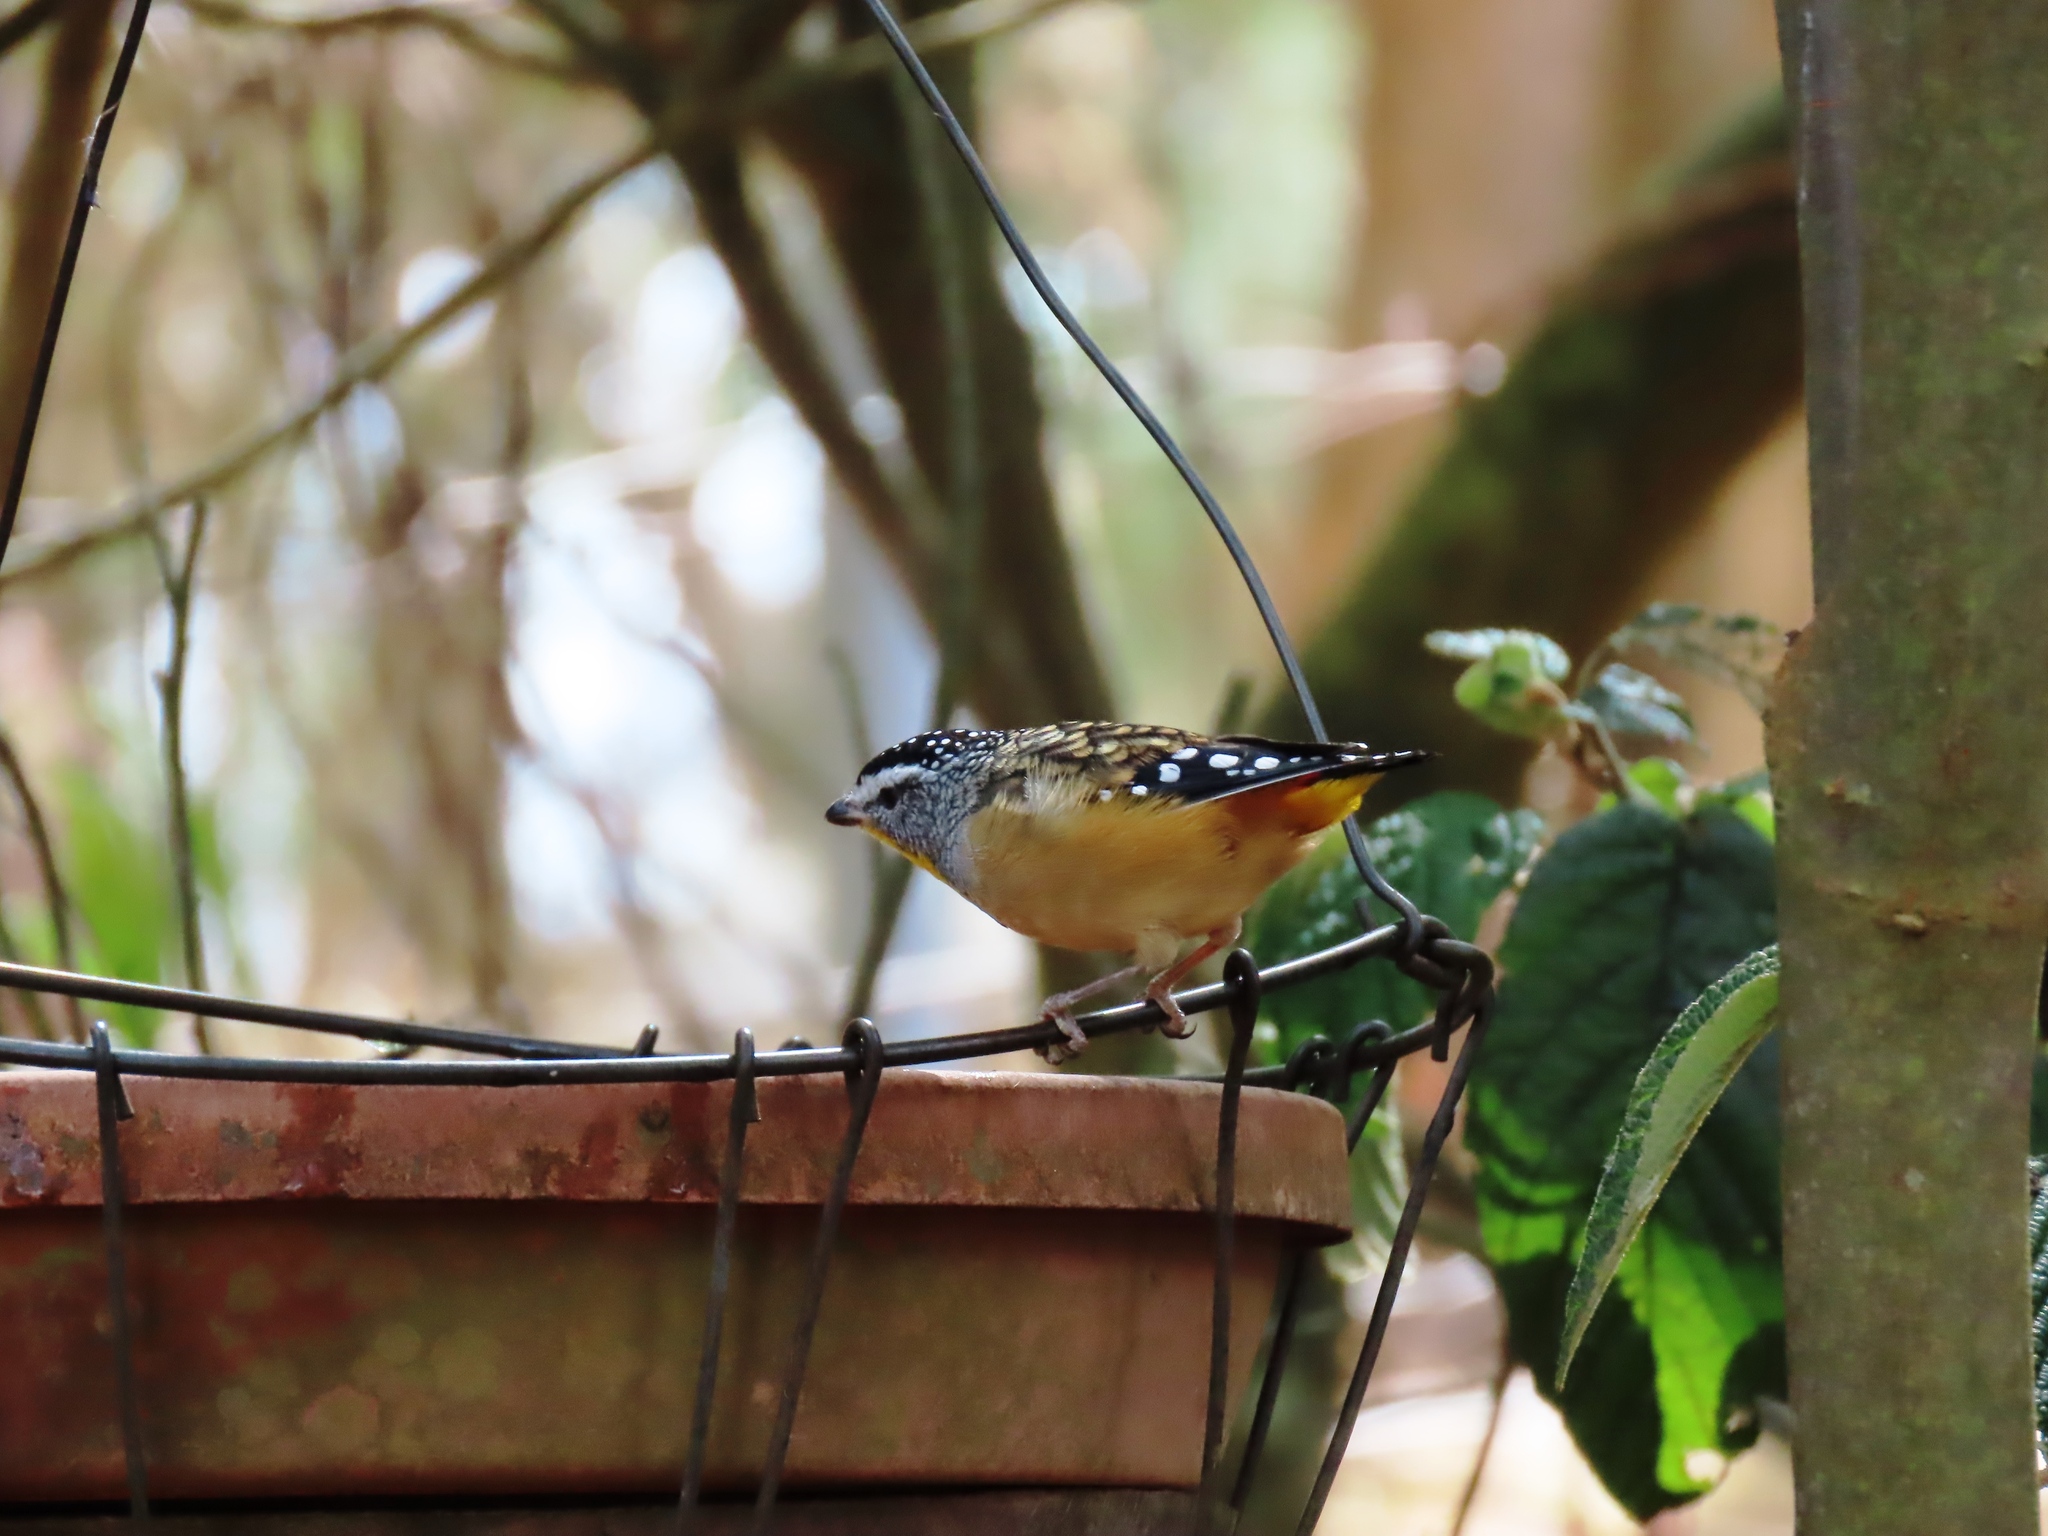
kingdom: Animalia
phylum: Chordata
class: Aves
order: Passeriformes
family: Pardalotidae
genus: Pardalotus
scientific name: Pardalotus punctatus
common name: Spotted pardalote
